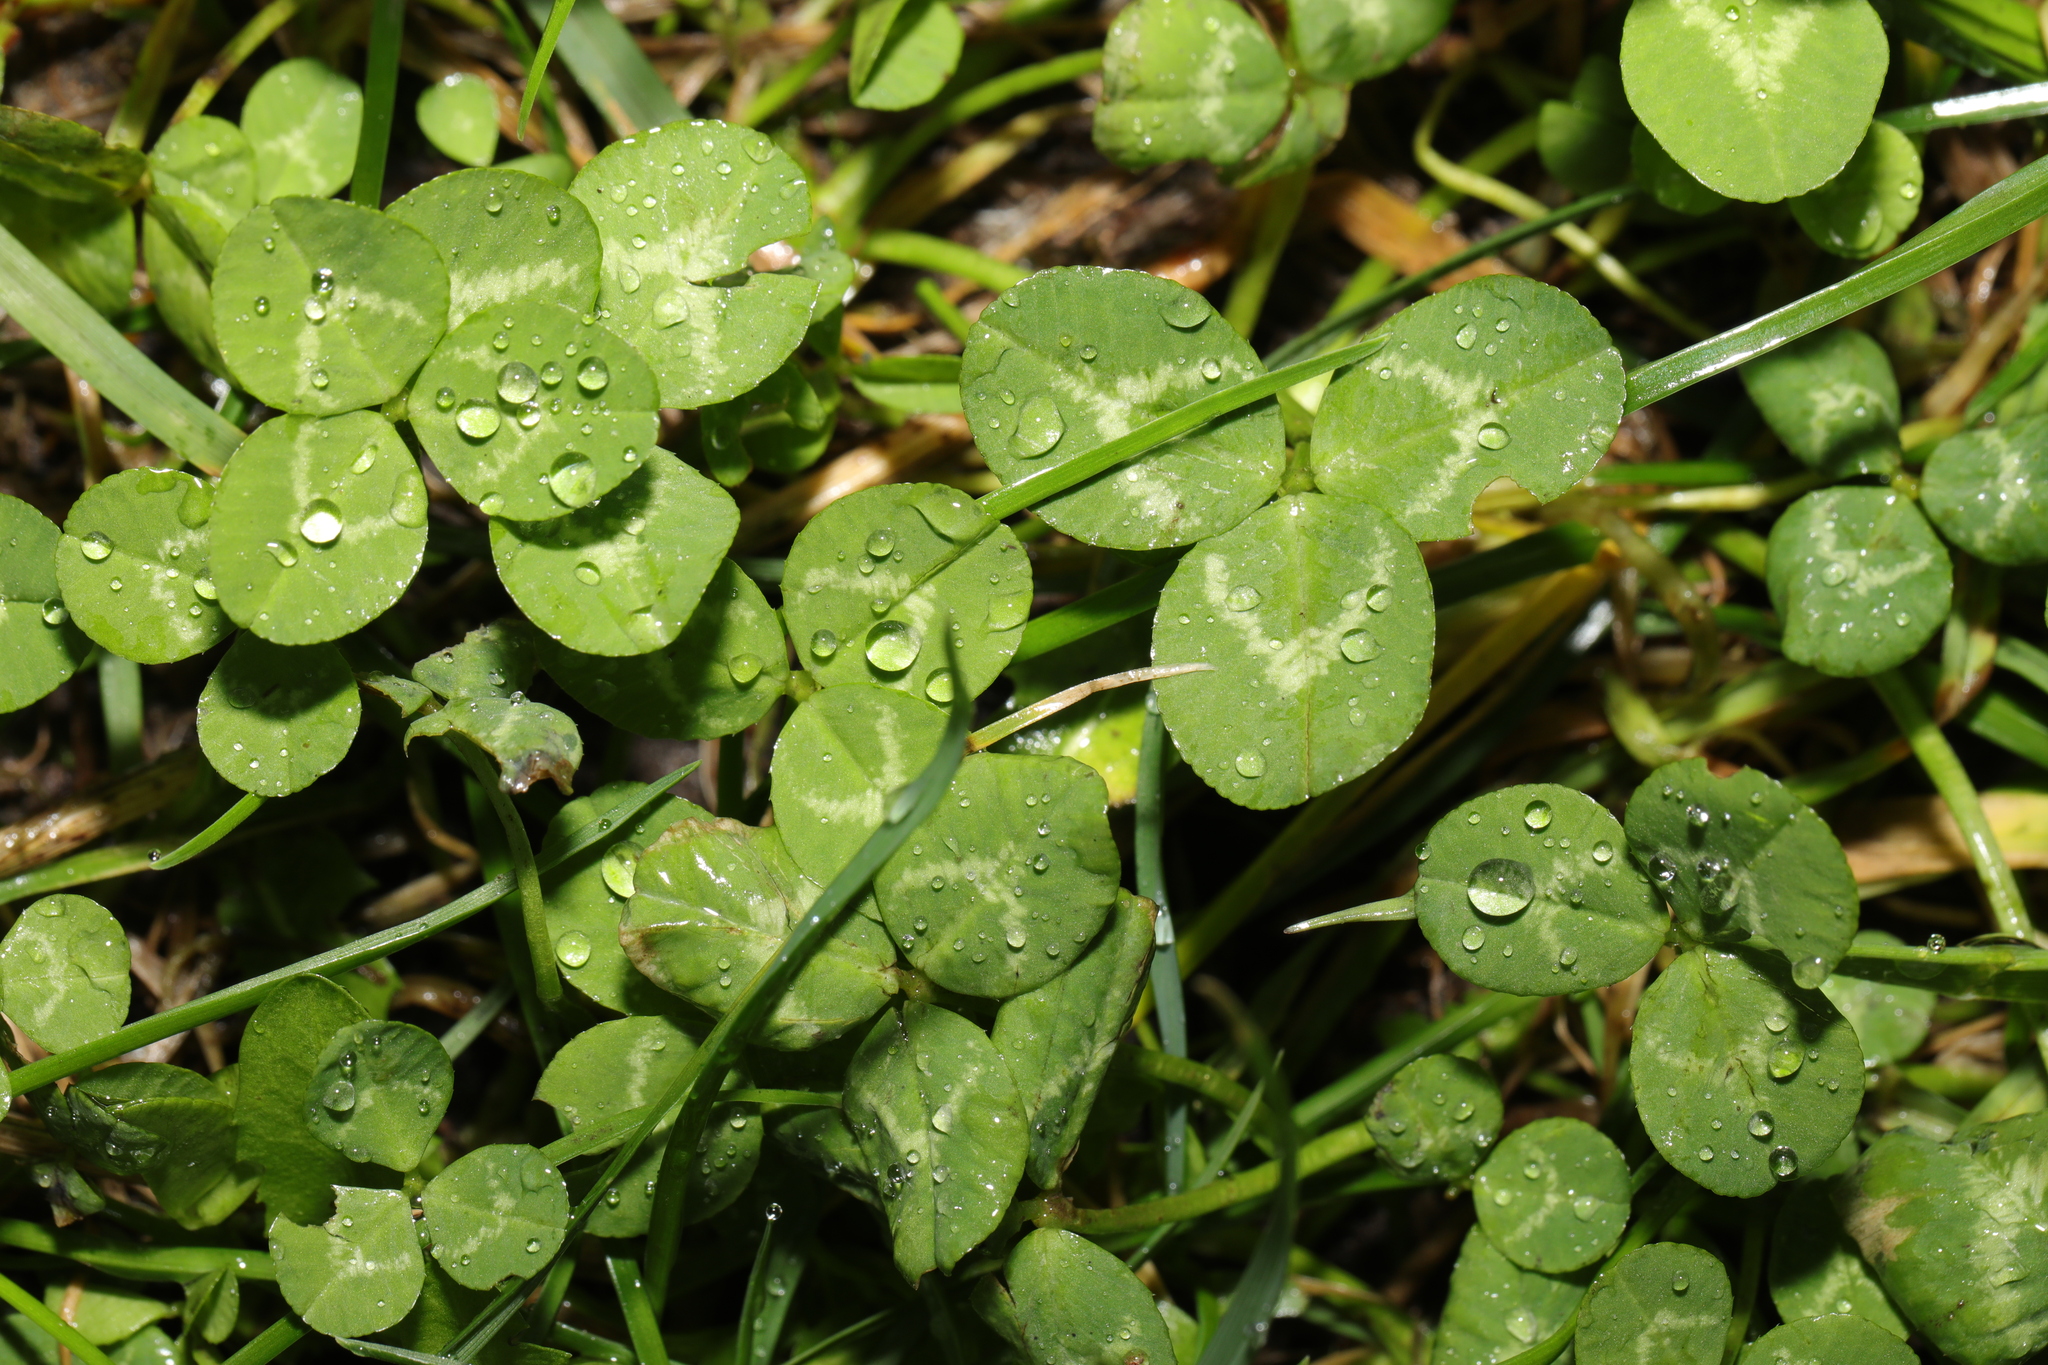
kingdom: Plantae
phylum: Tracheophyta
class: Magnoliopsida
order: Fabales
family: Fabaceae
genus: Trifolium
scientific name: Trifolium repens
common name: White clover
